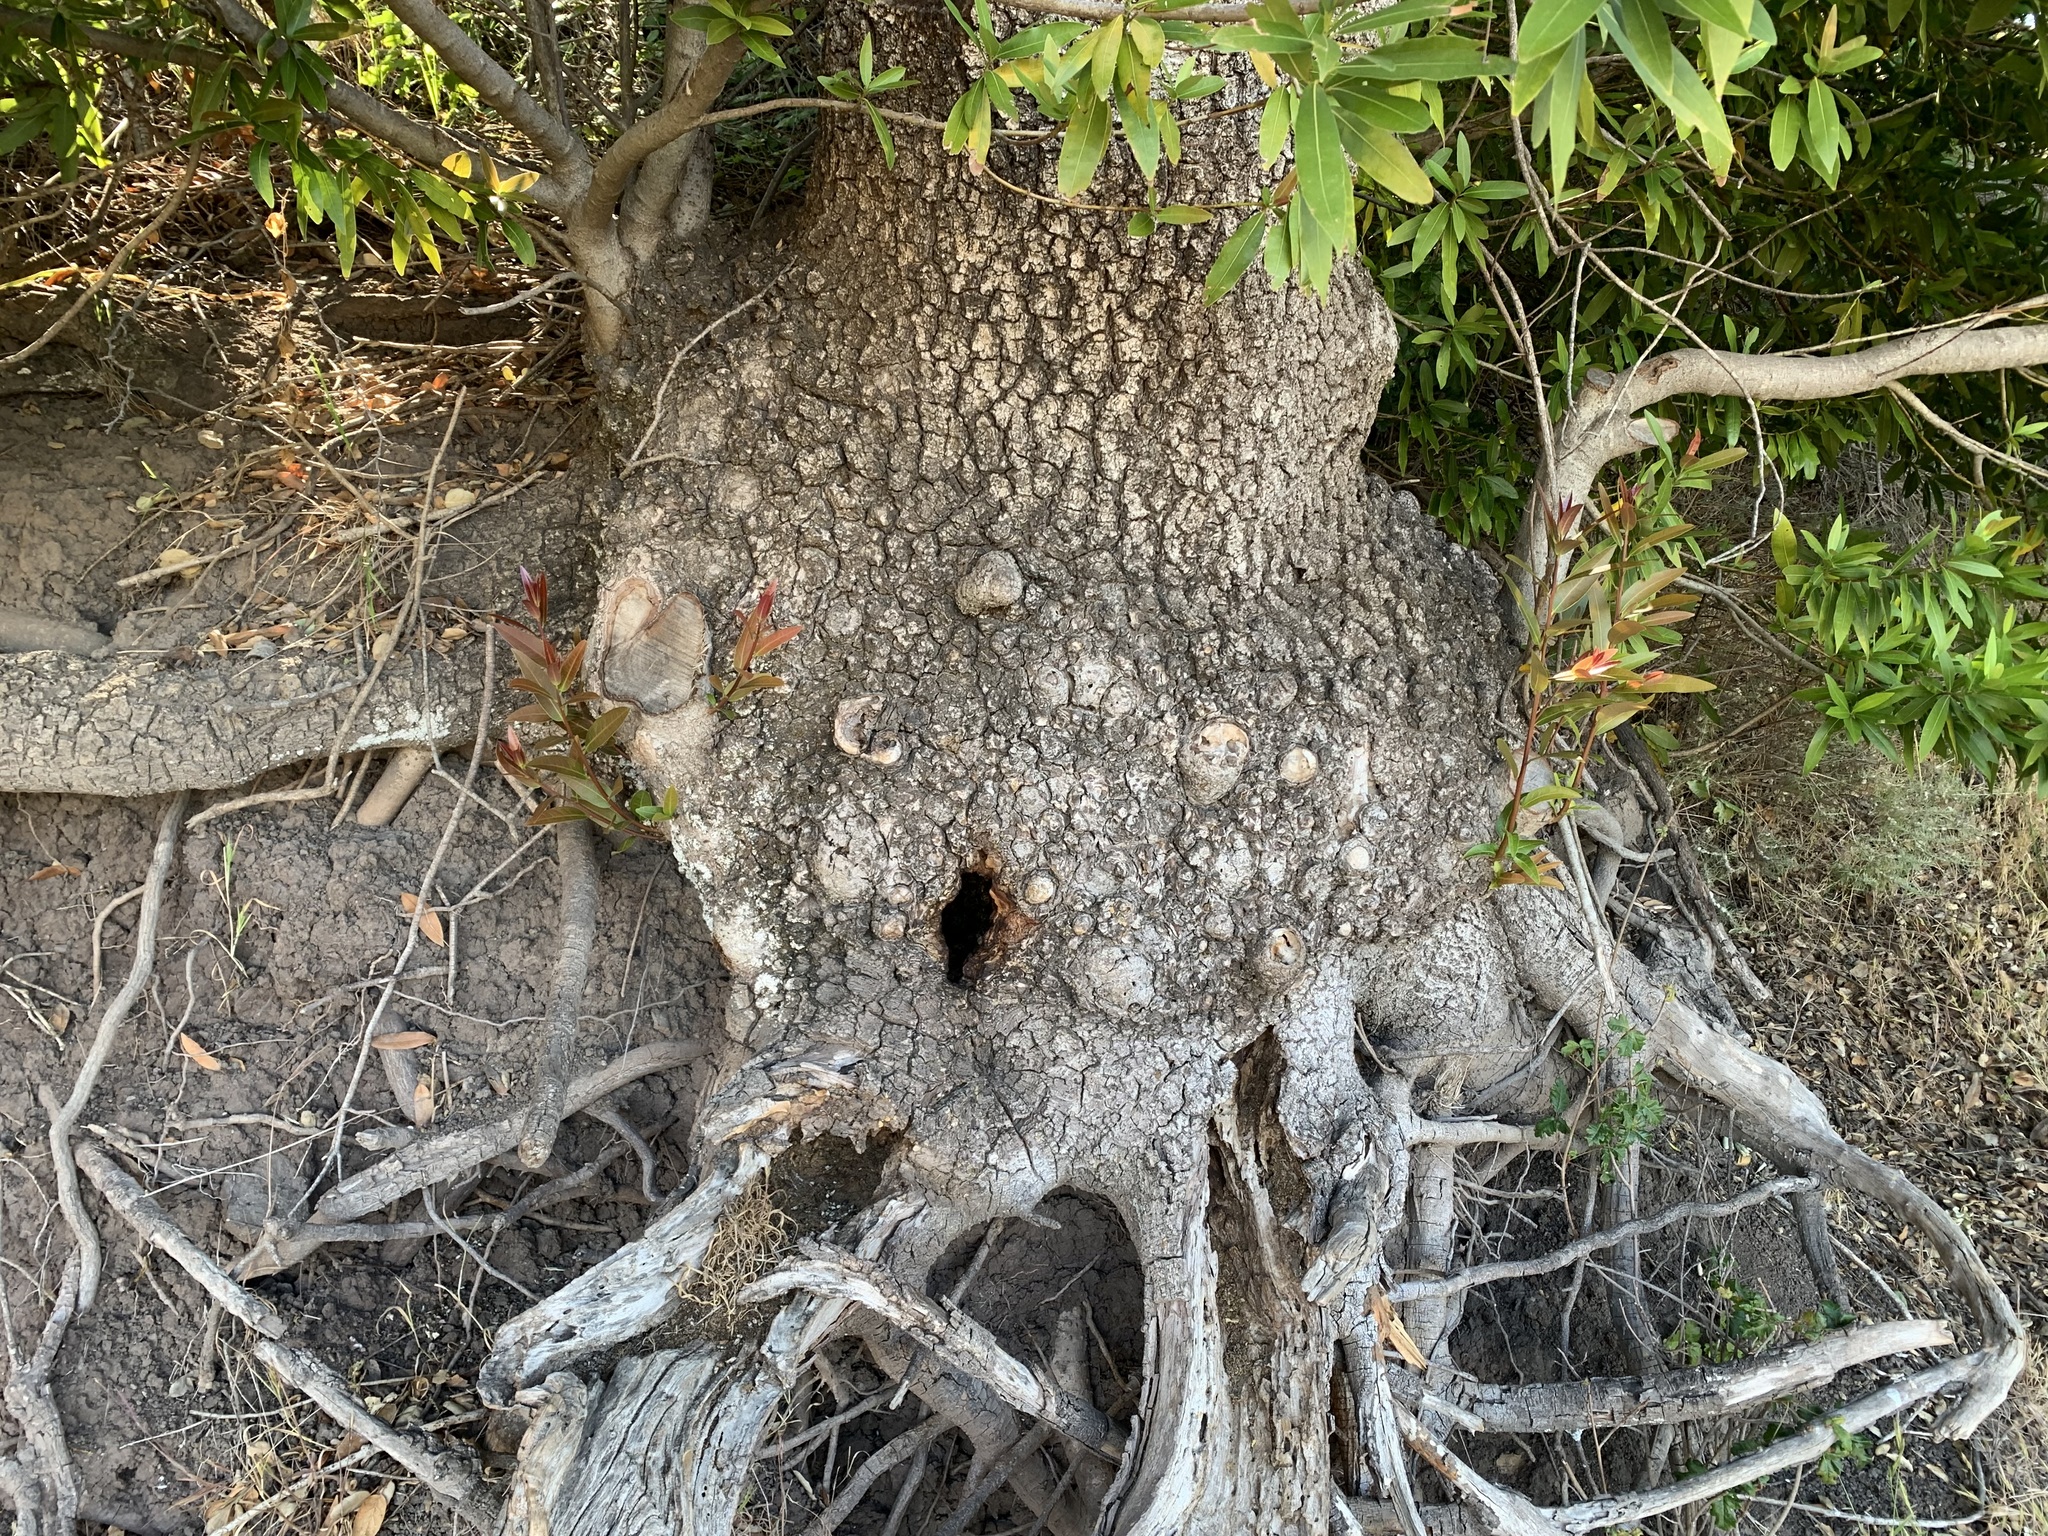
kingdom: Animalia
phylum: Arthropoda
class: Insecta
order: Hymenoptera
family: Apidae
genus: Apis
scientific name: Apis mellifera
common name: Honey bee
